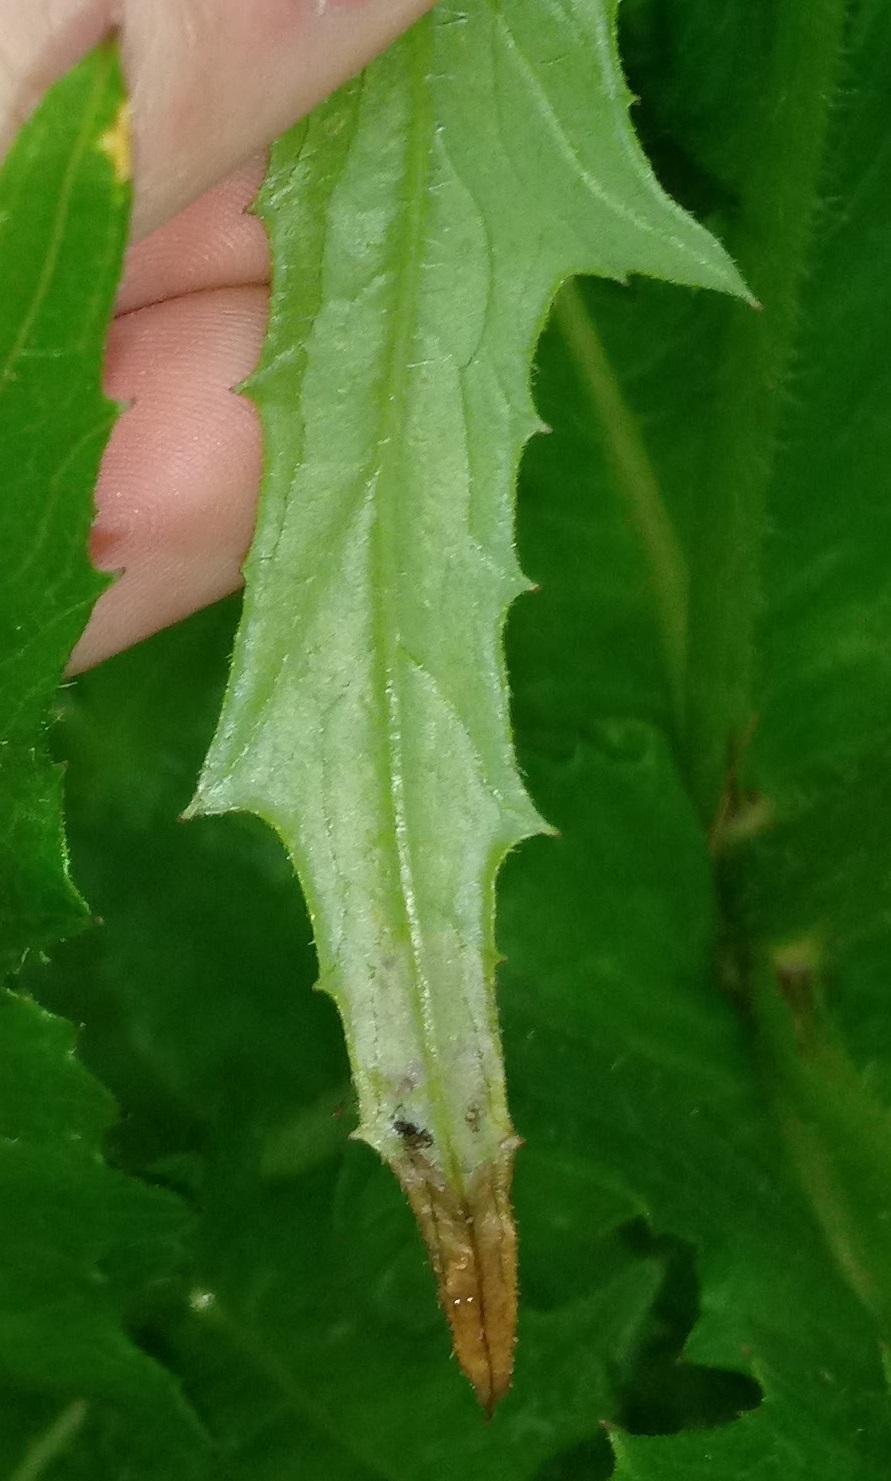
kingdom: Animalia
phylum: Arthropoda
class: Insecta
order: Diptera
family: Agromyzidae
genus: Nemorimyza
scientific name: Nemorimyza maculosa
